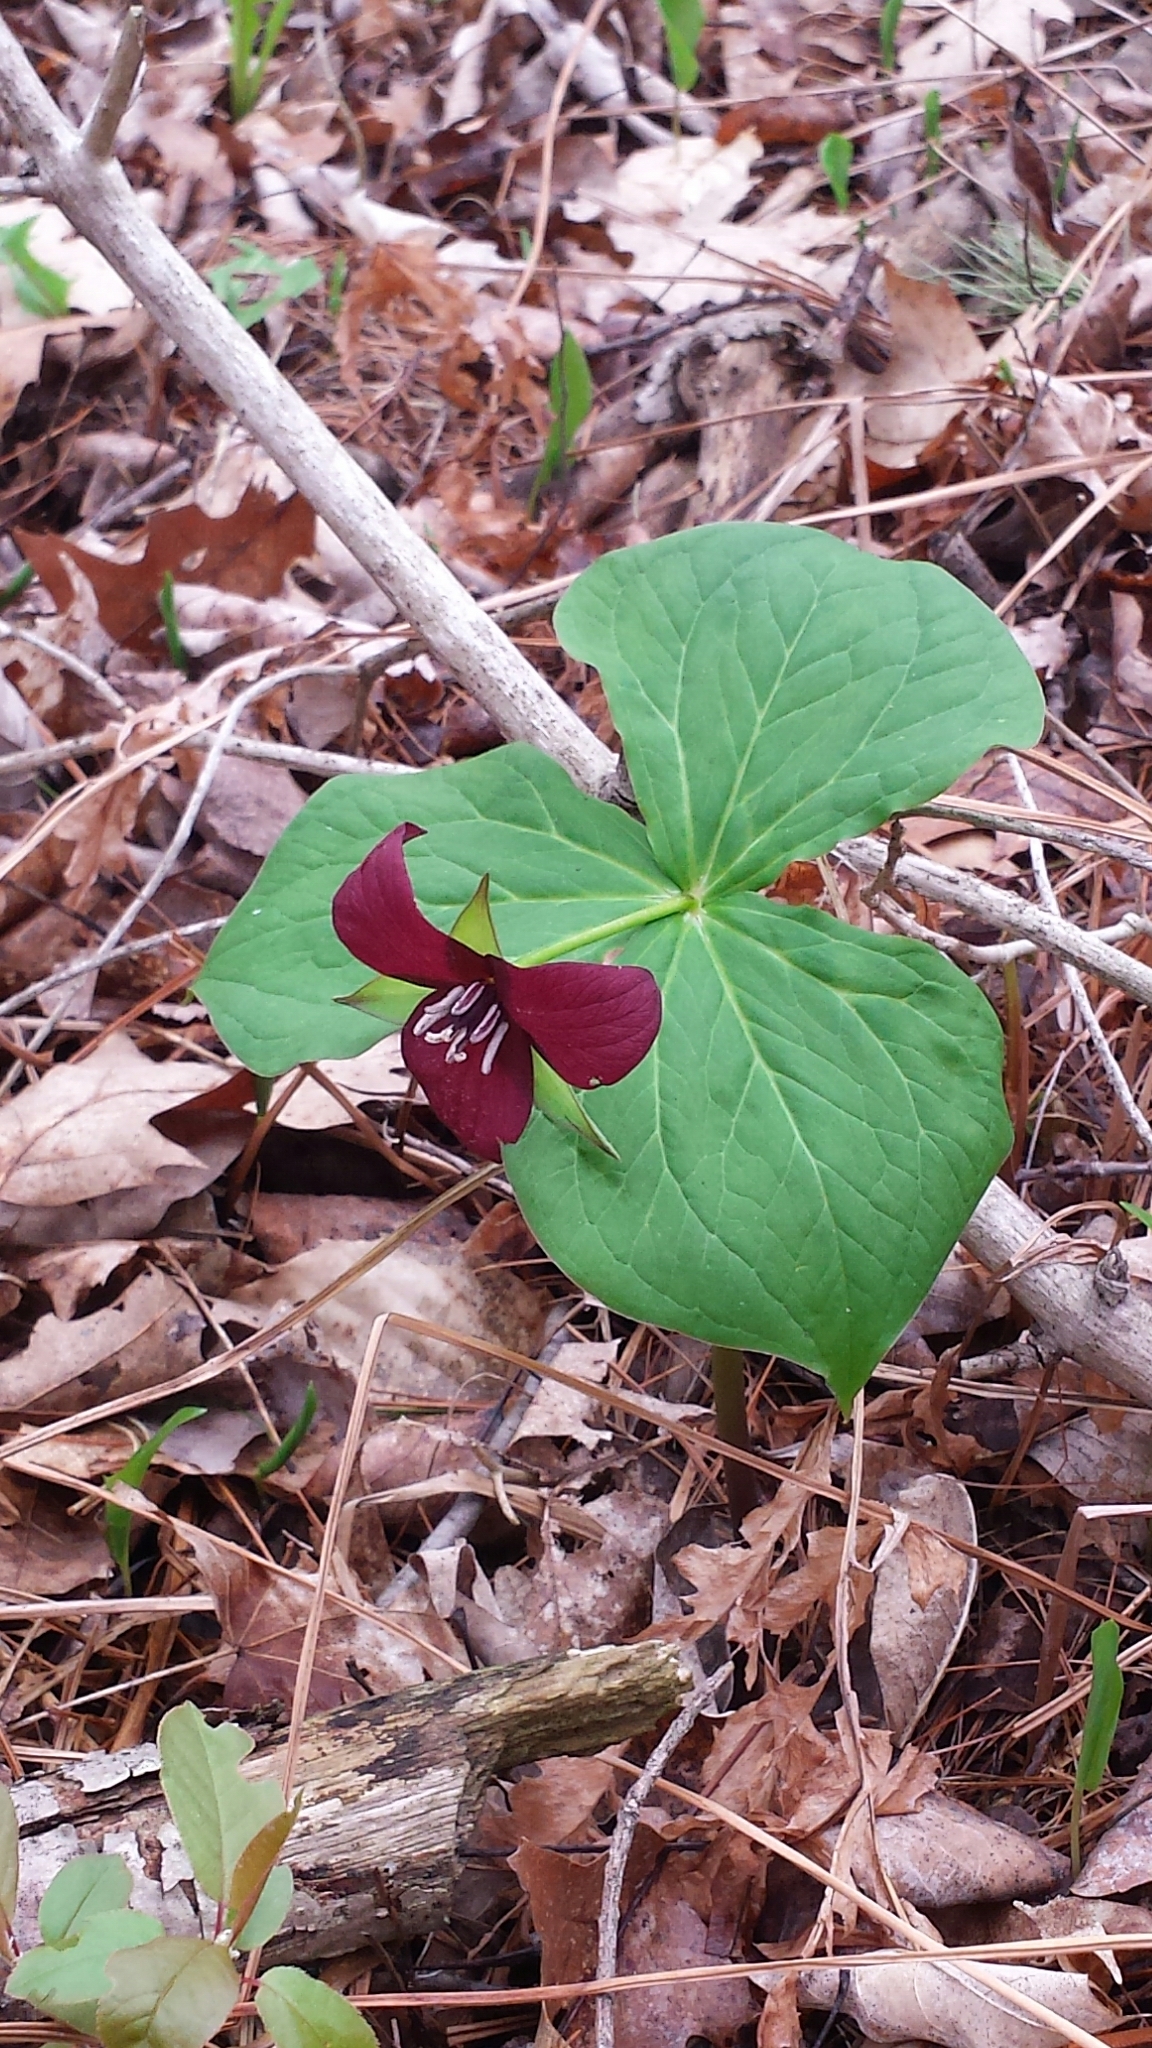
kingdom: Plantae
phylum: Tracheophyta
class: Liliopsida
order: Liliales
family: Melanthiaceae
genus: Trillium
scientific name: Trillium erectum
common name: Purple trillium
